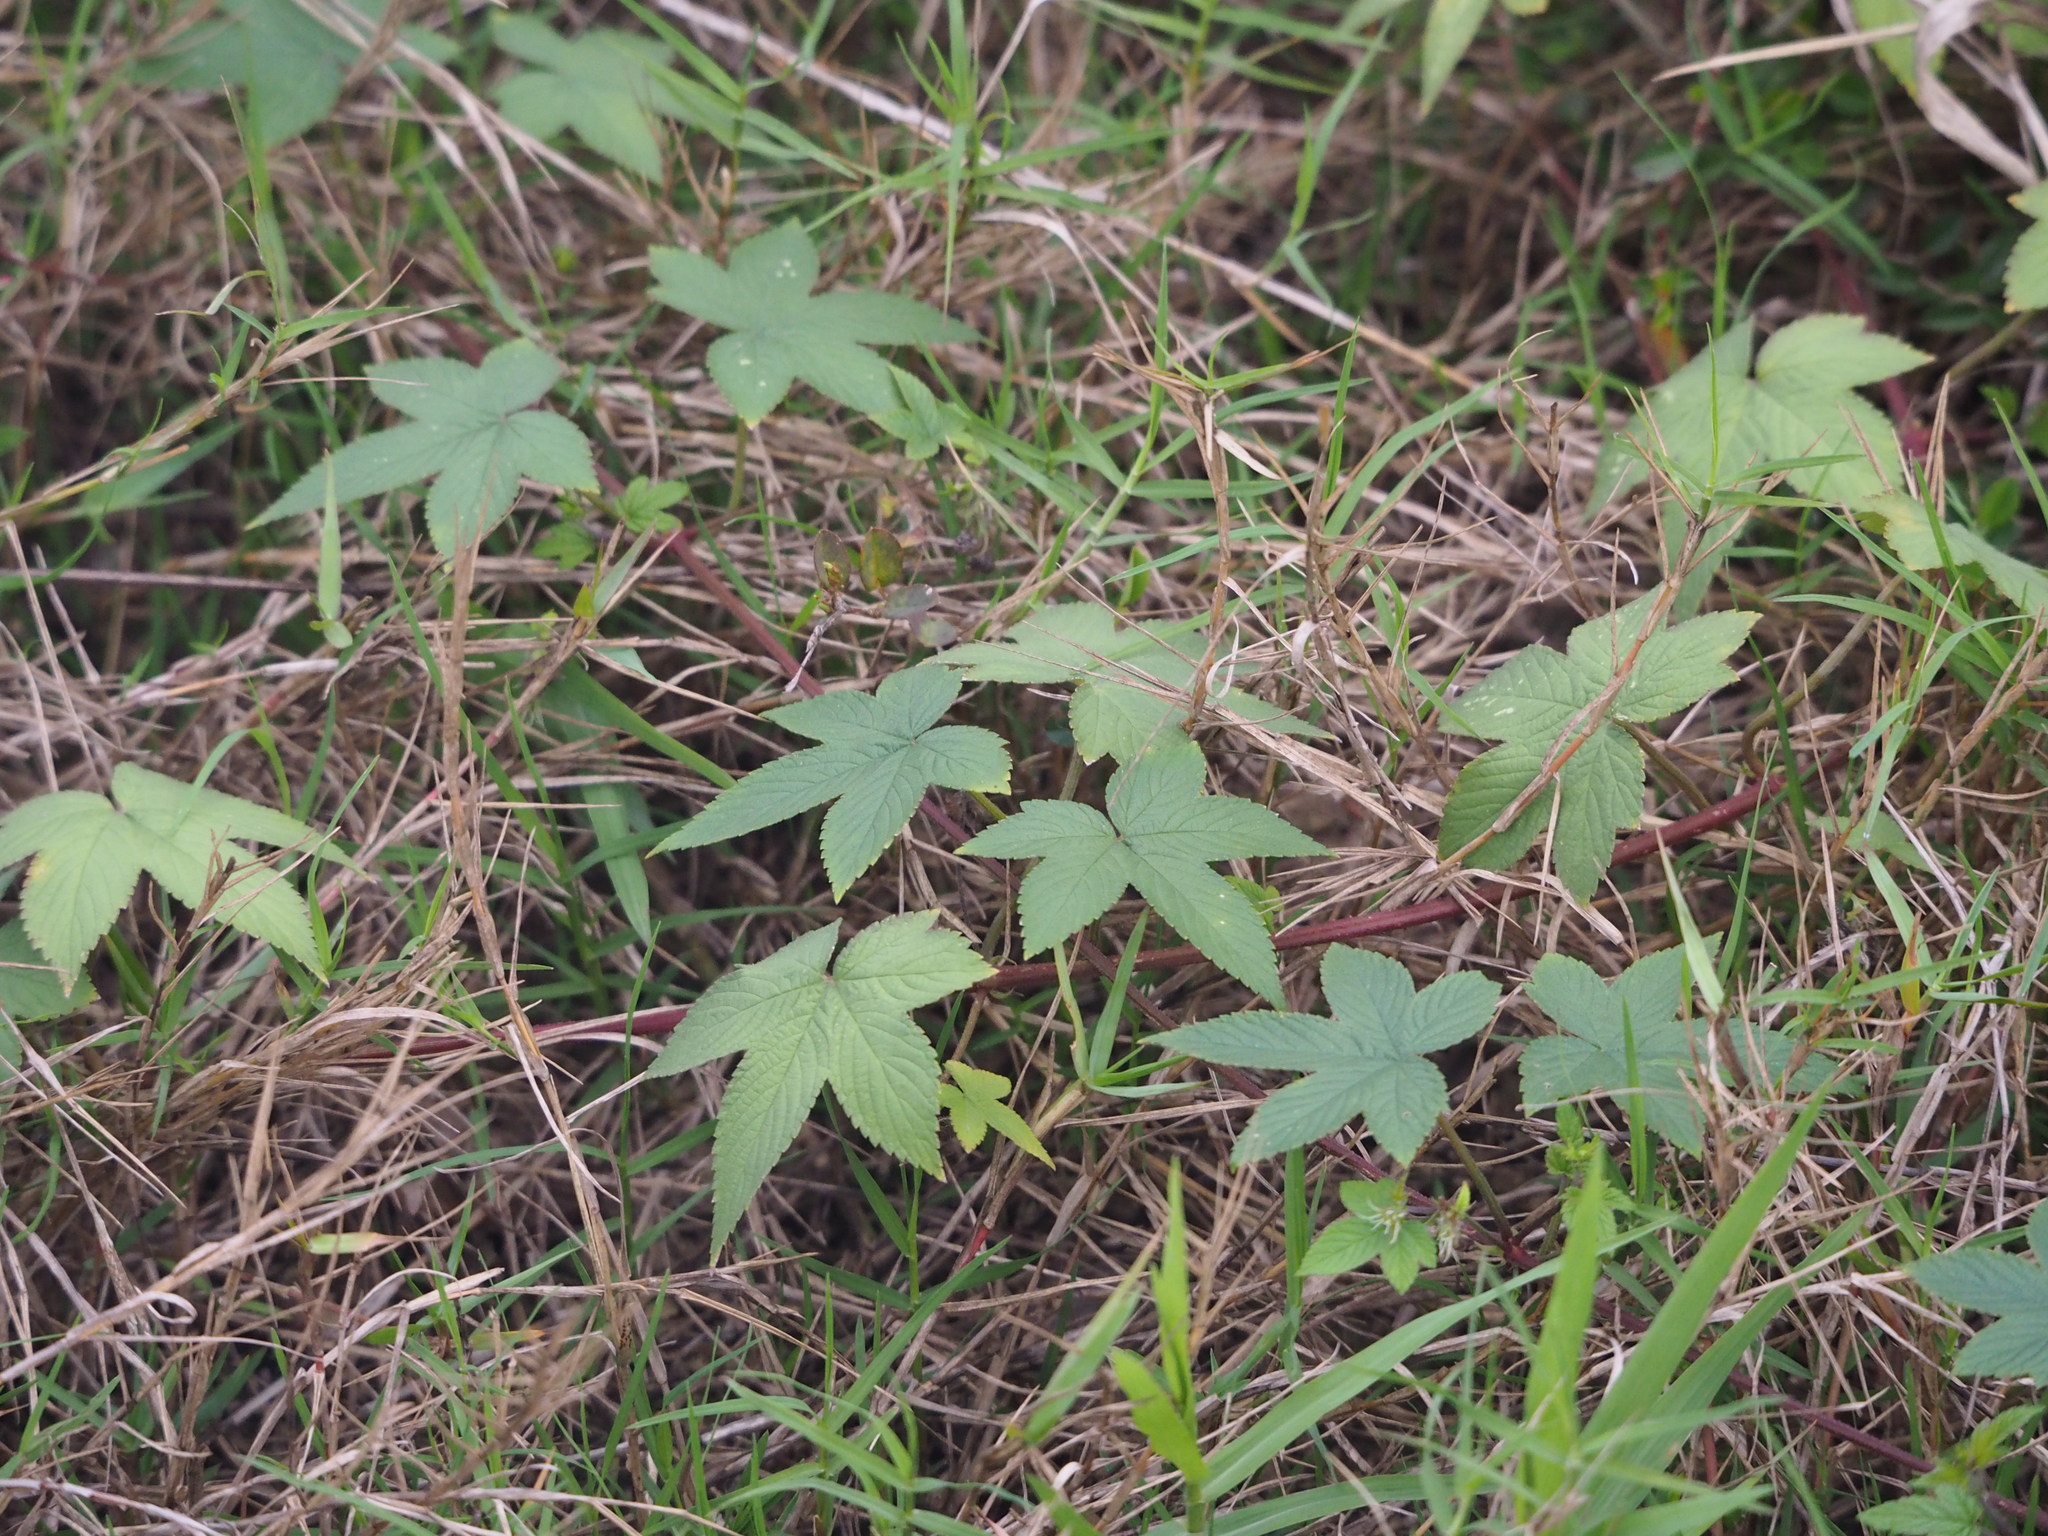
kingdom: Plantae
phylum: Tracheophyta
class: Magnoliopsida
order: Rosales
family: Cannabaceae
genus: Humulus
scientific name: Humulus scandens
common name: Japanese hop
